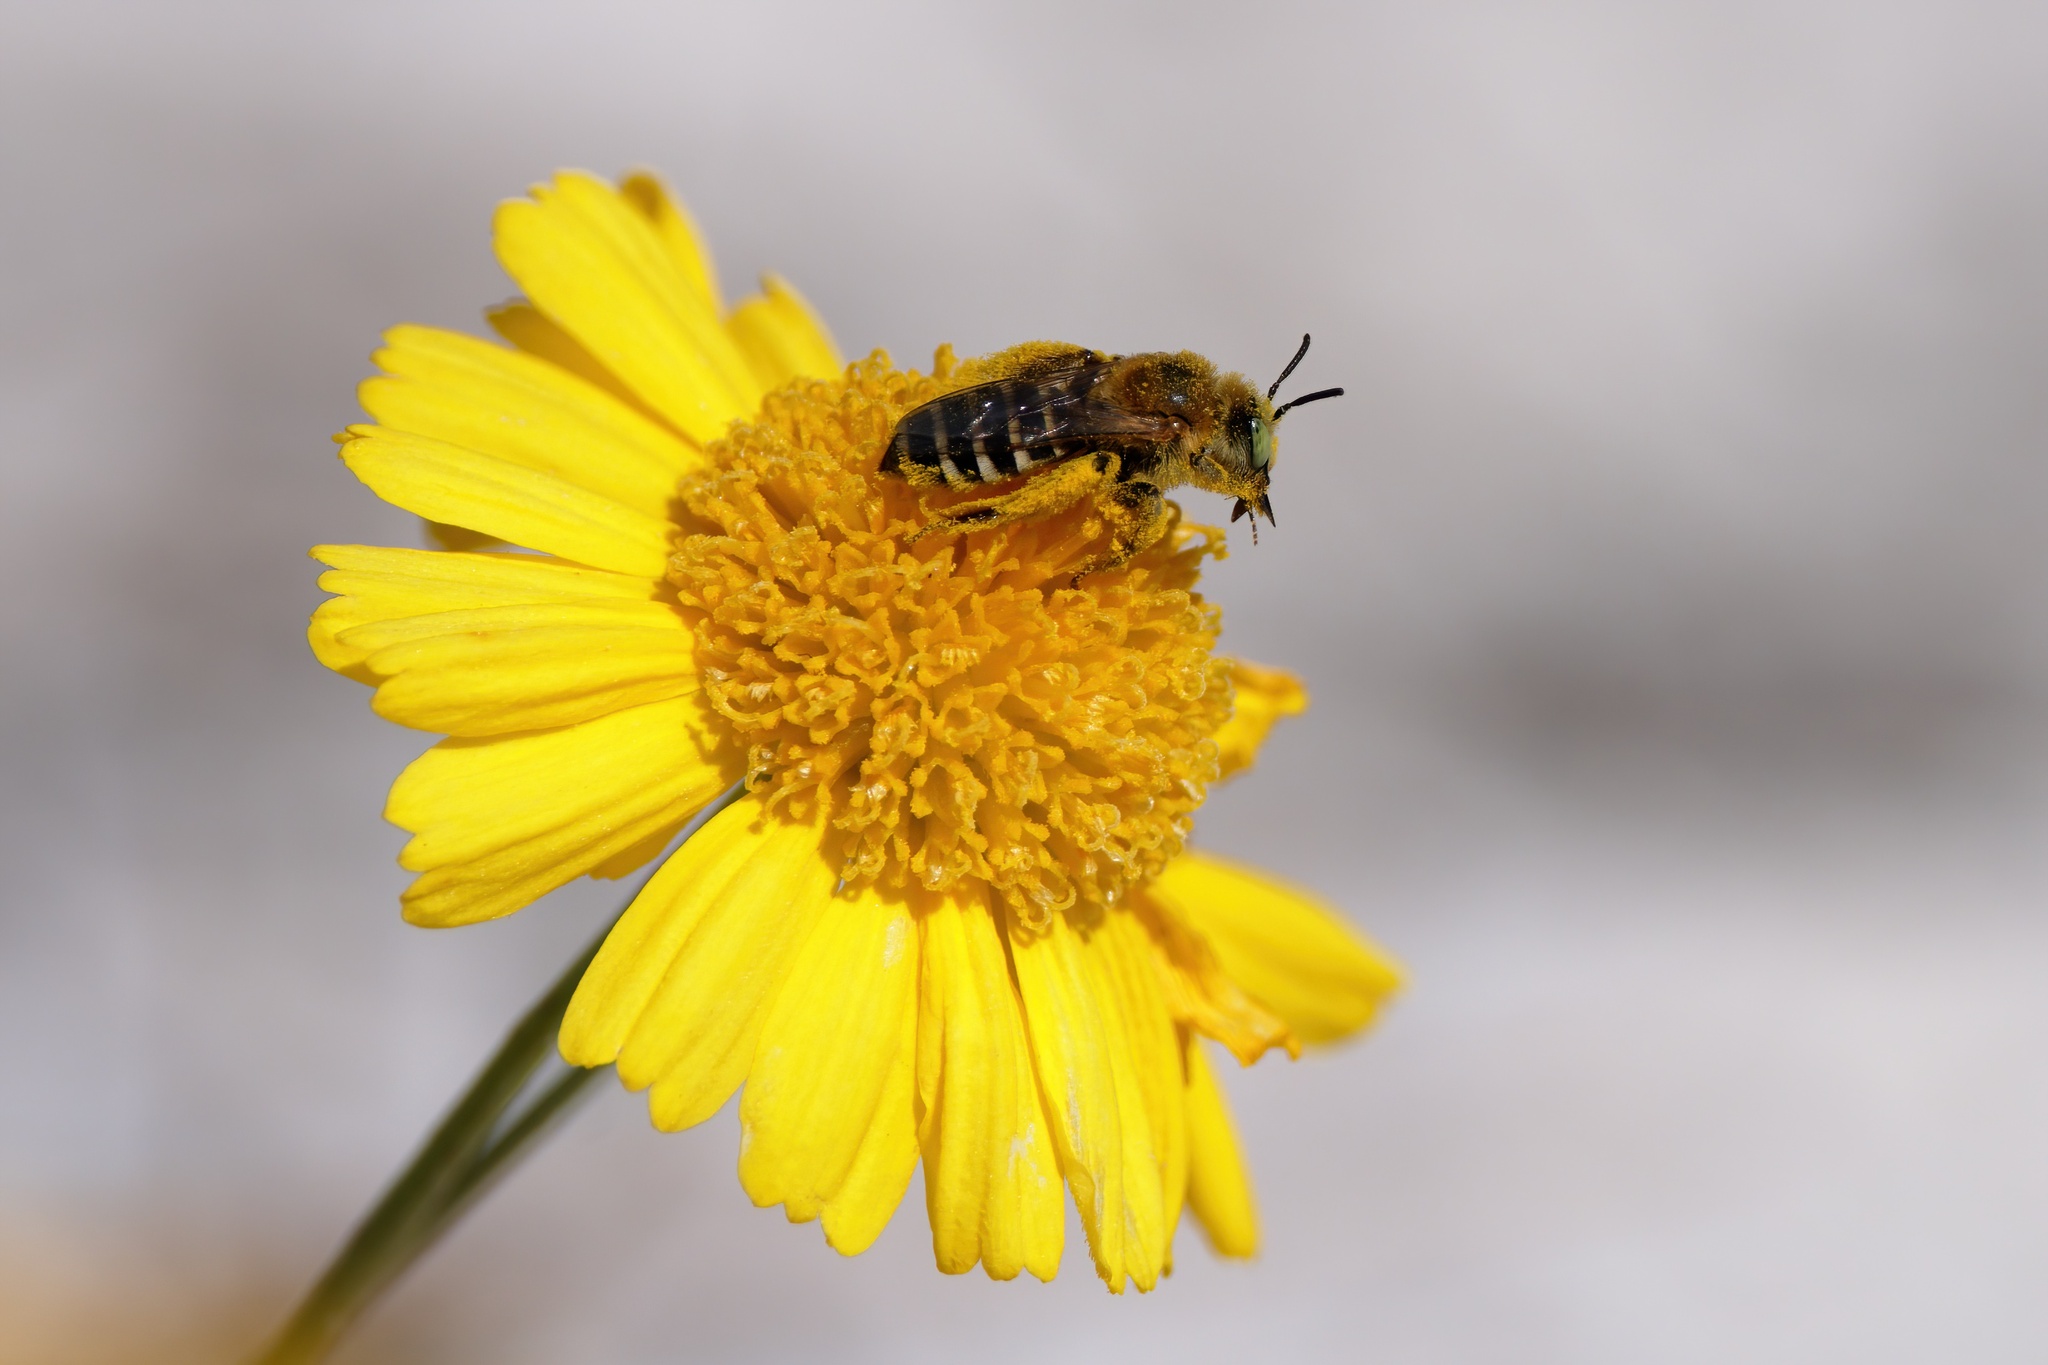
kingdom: Animalia
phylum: Arthropoda
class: Insecta
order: Hymenoptera
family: Melittidae
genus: Hesperapis
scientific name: Hesperapis oraria
